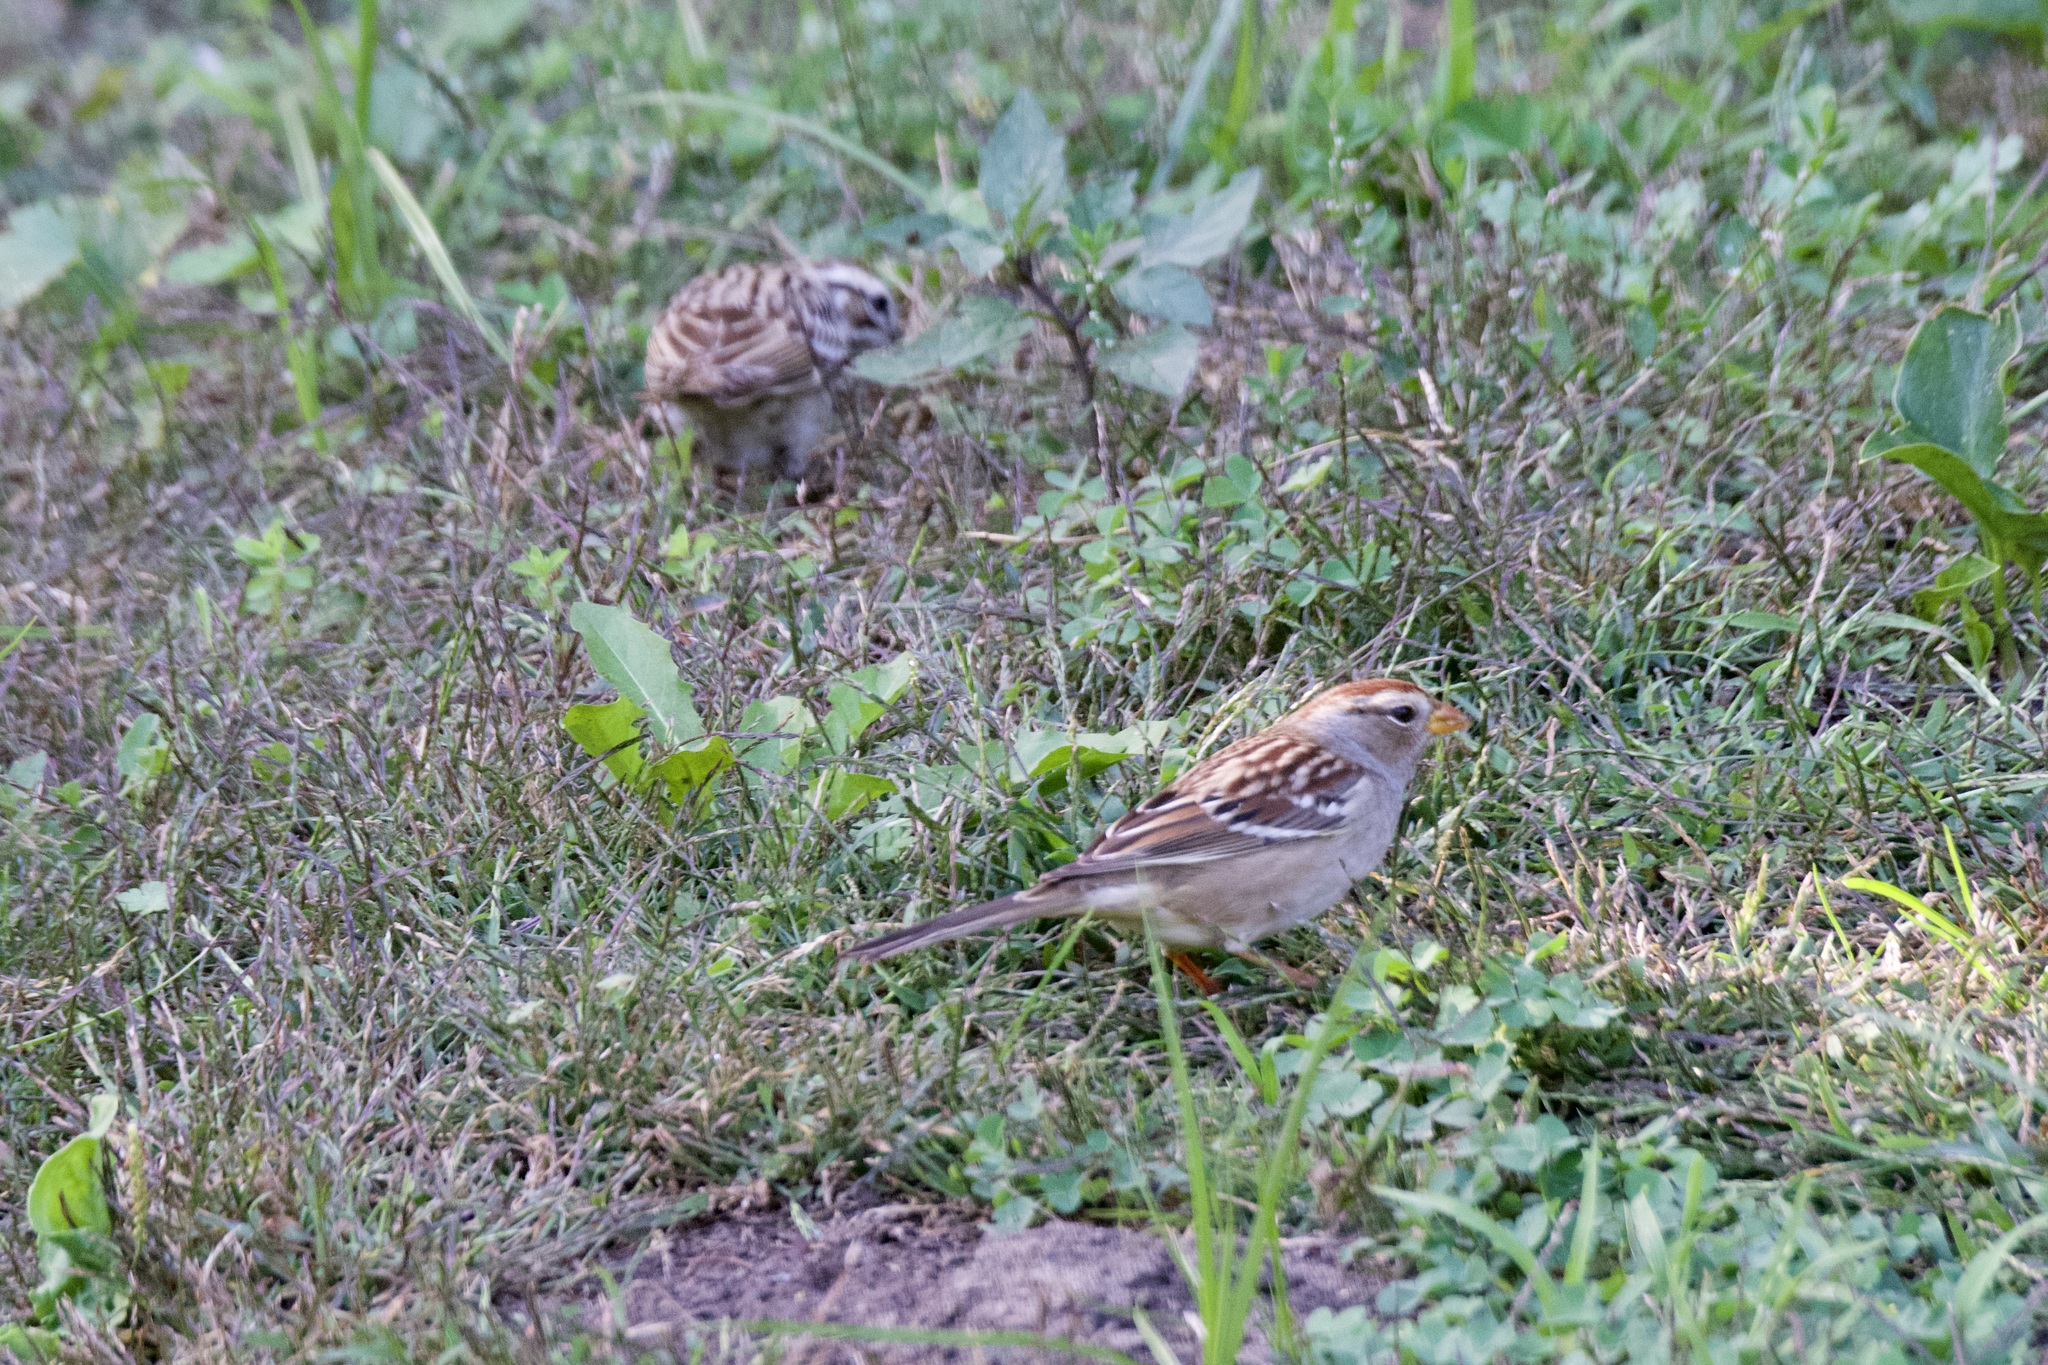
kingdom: Animalia
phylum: Chordata
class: Aves
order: Passeriformes
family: Passerellidae
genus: Zonotrichia
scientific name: Zonotrichia leucophrys
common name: White-crowned sparrow
